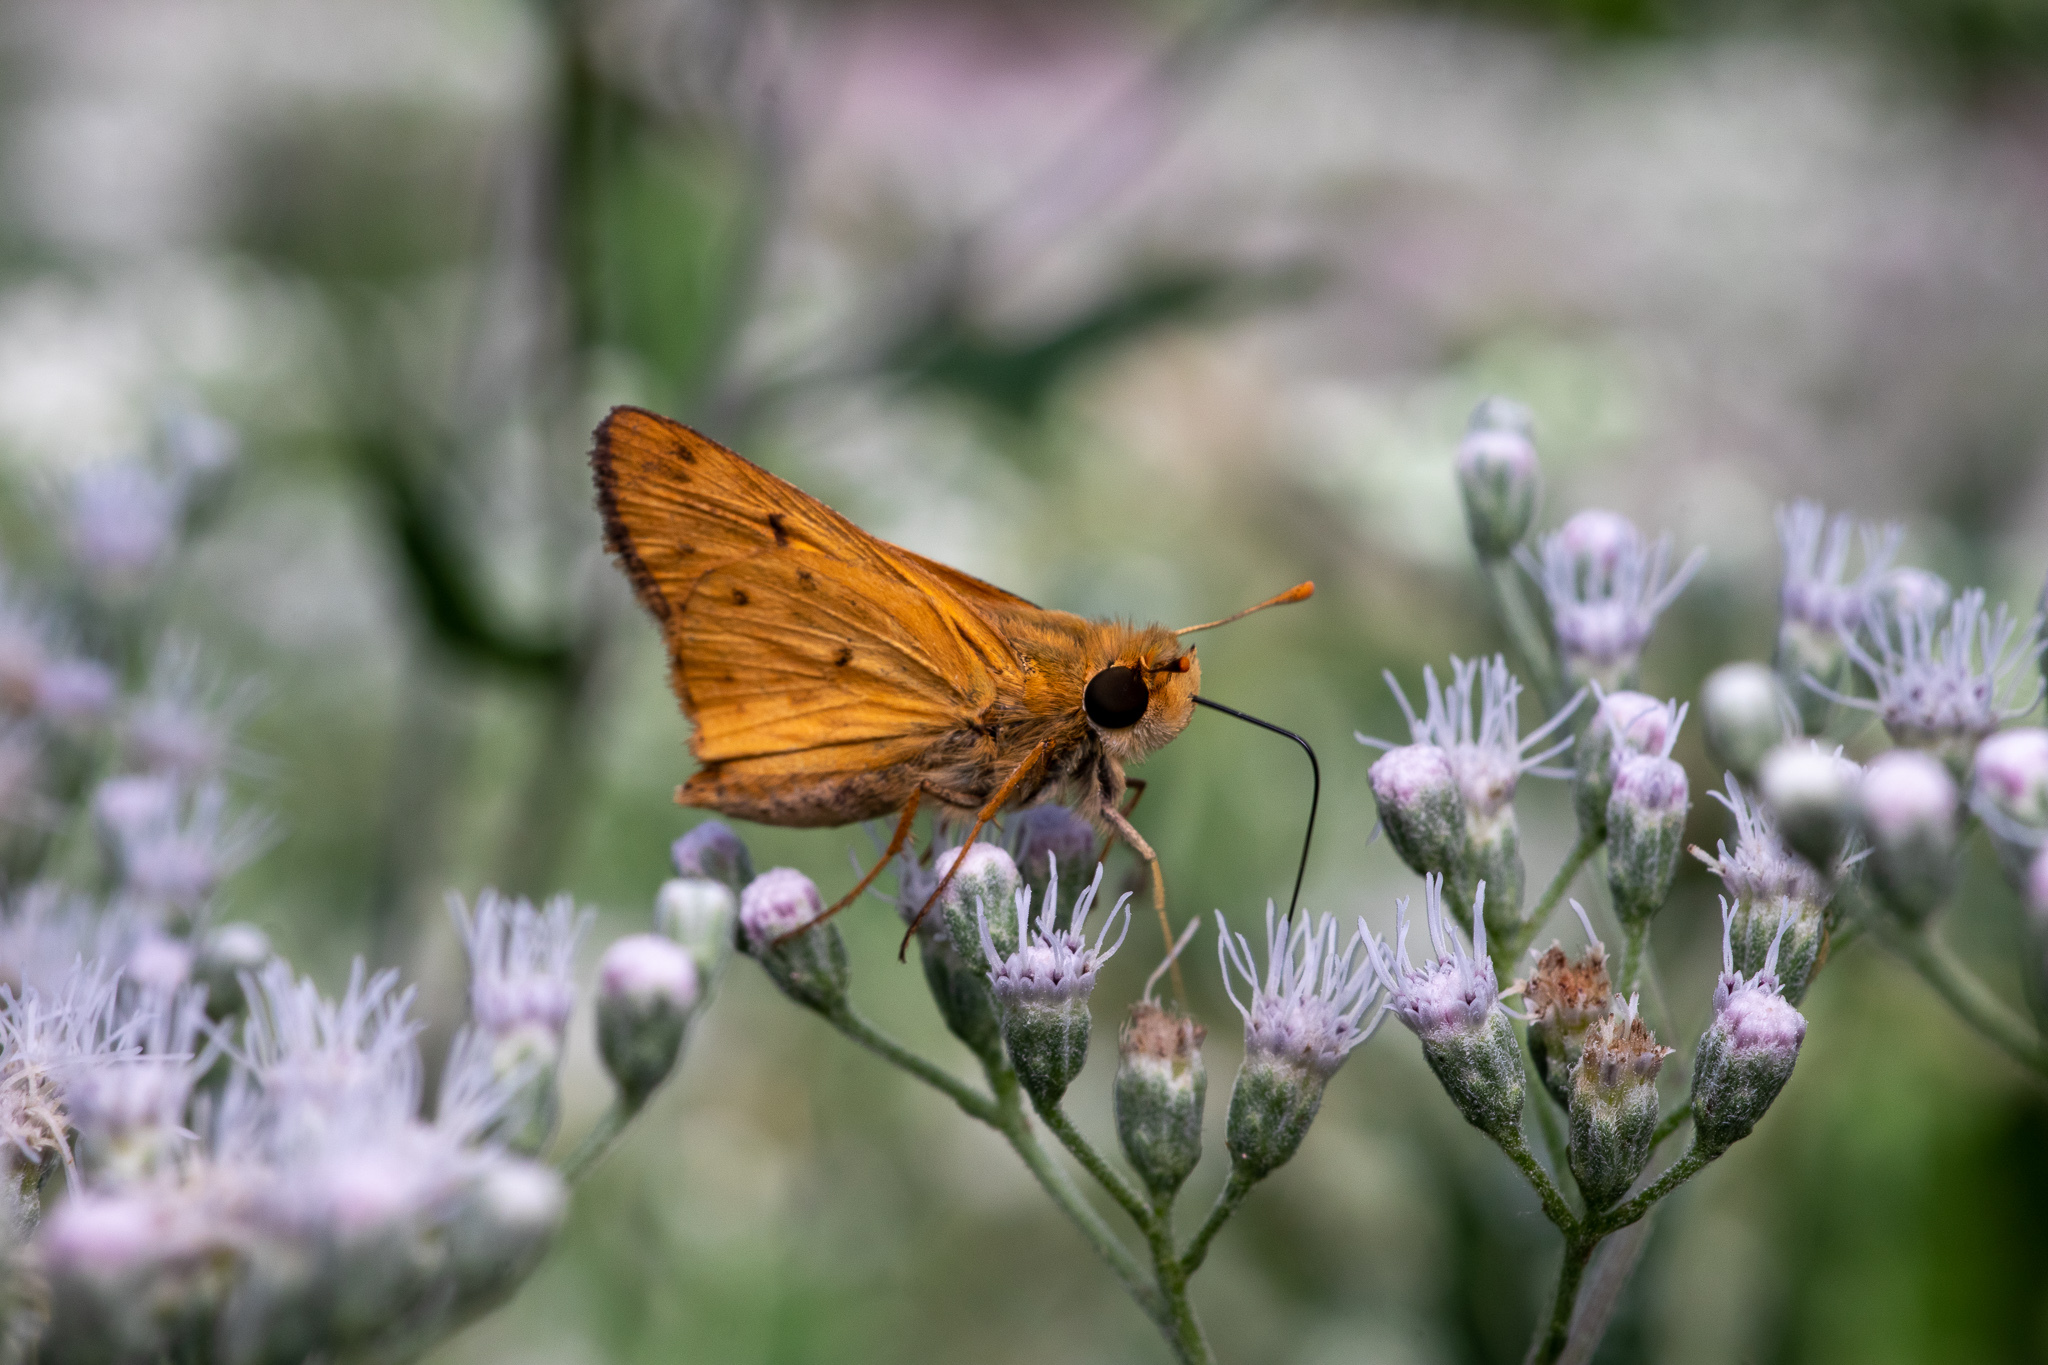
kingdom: Animalia
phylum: Arthropoda
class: Insecta
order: Lepidoptera
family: Hesperiidae
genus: Hylephila
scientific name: Hylephila phyleus
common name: Fiery skipper
